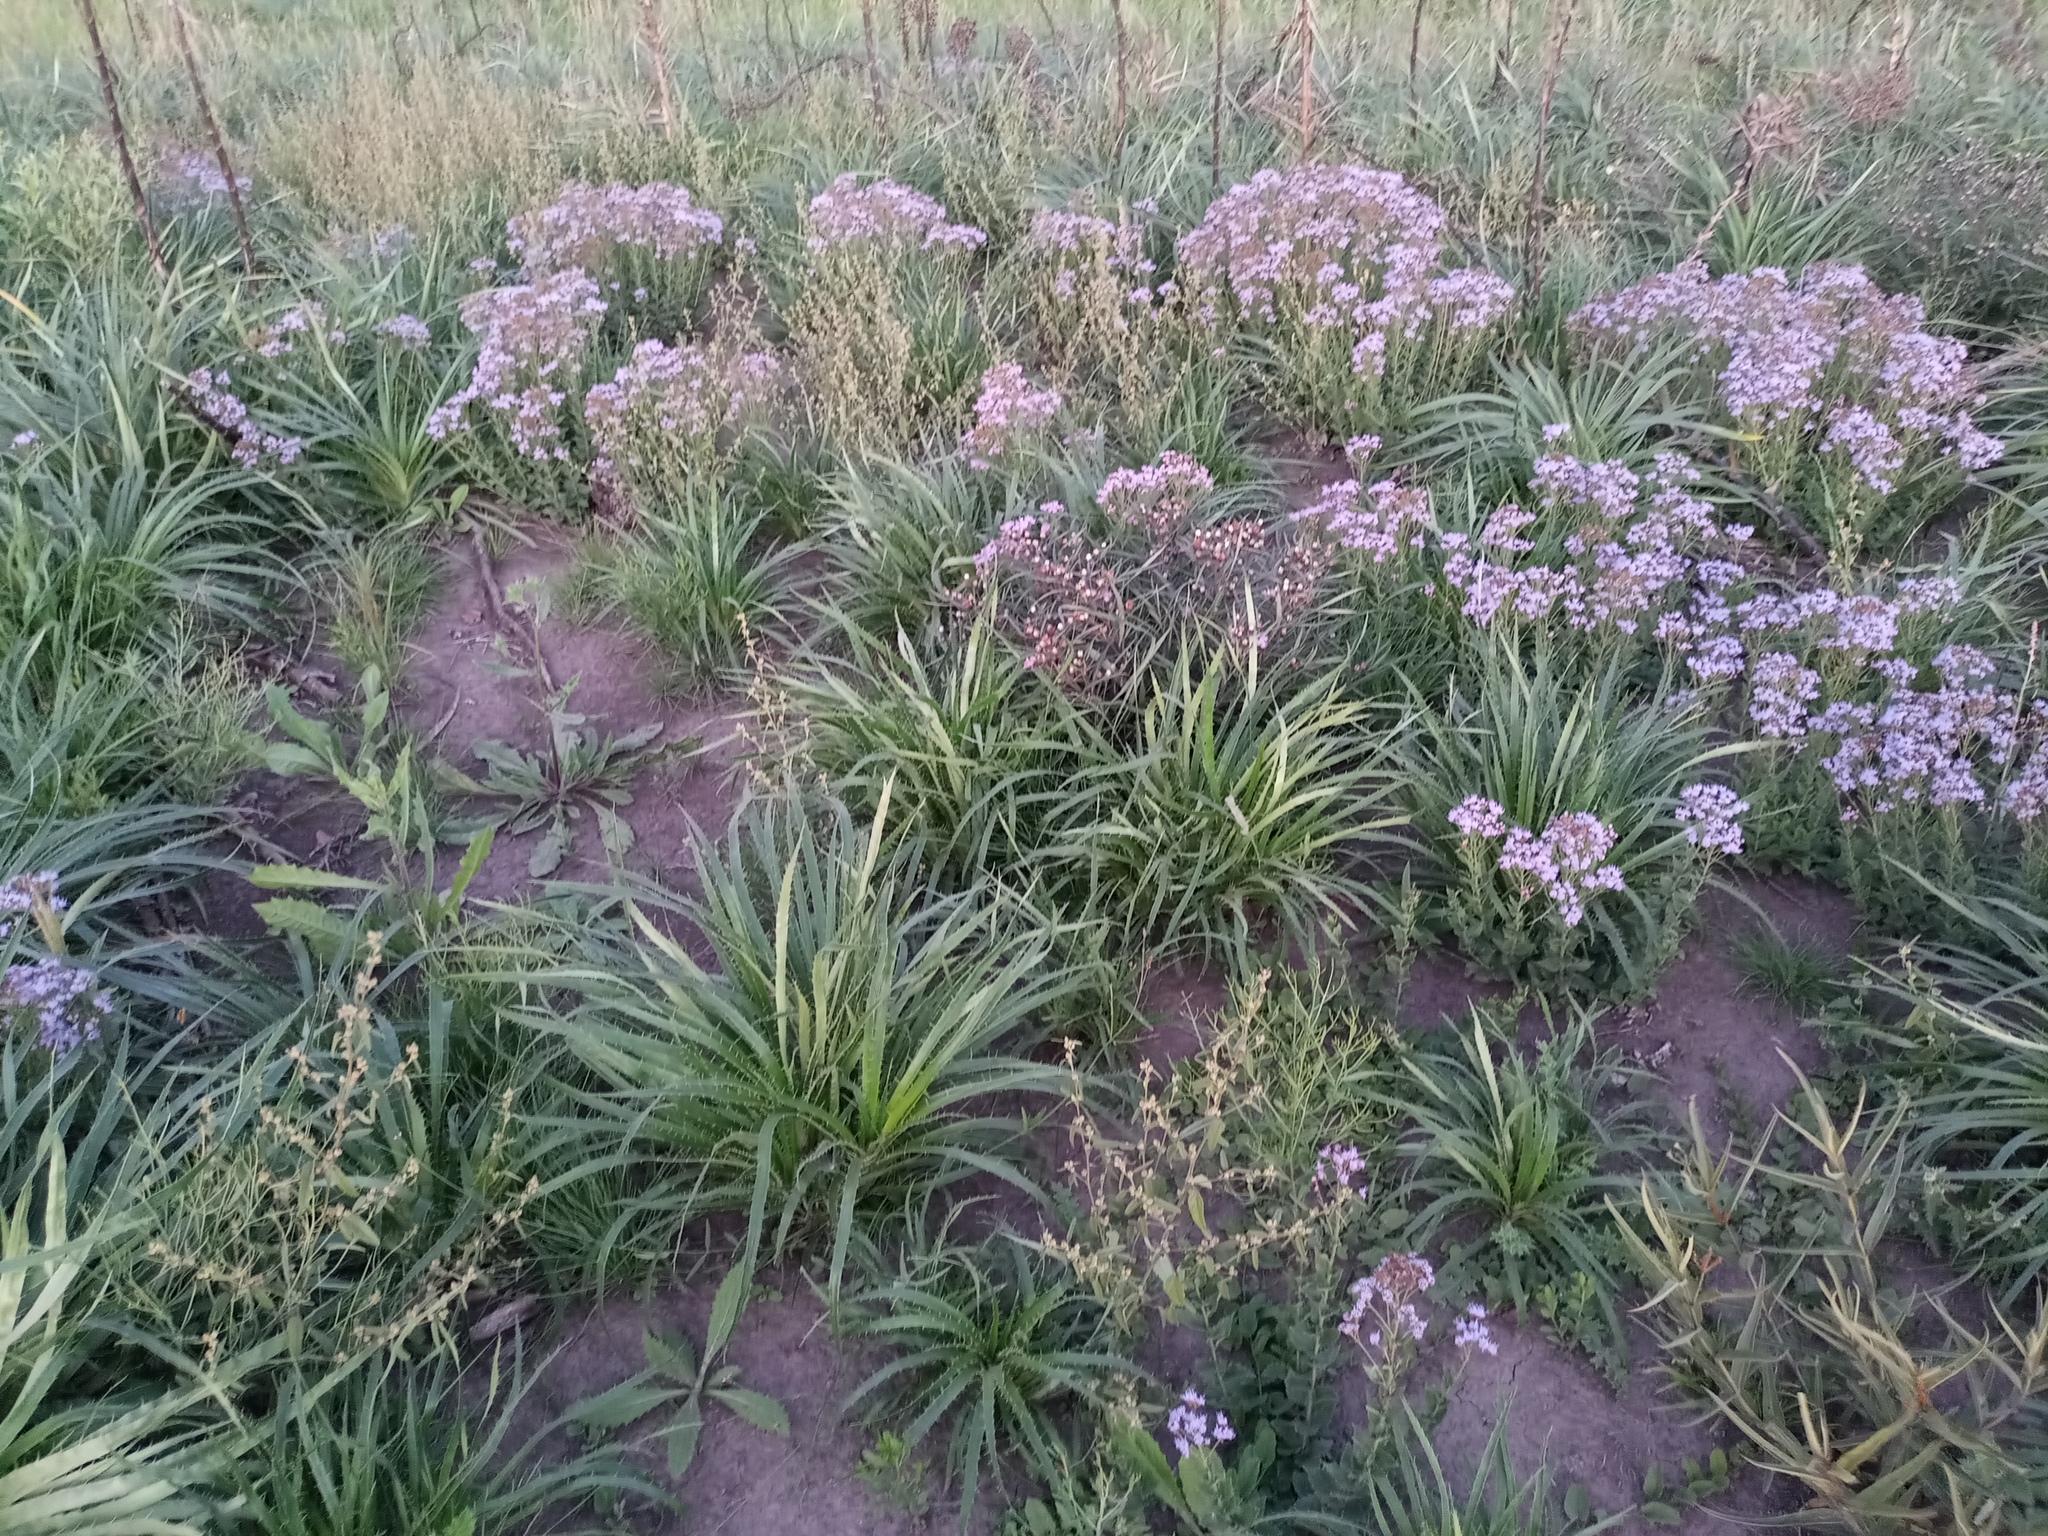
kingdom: Plantae
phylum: Tracheophyta
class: Magnoliopsida
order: Asterales
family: Asteraceae
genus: Chromolaena
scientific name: Chromolaena hirsuta
